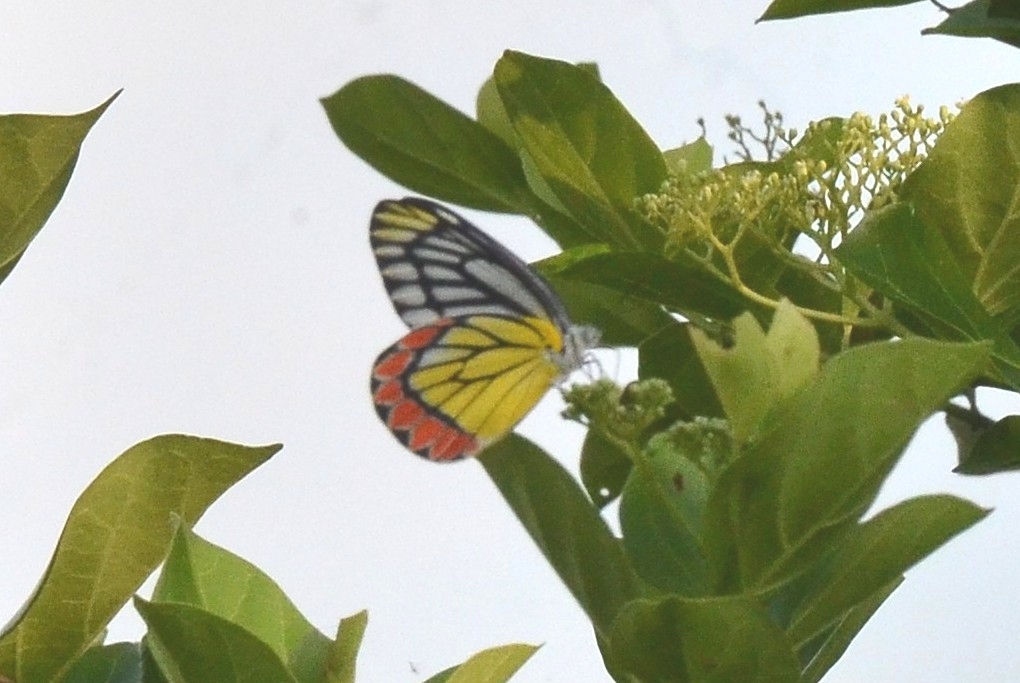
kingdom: Animalia
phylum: Arthropoda
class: Insecta
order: Lepidoptera
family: Pieridae
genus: Delias
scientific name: Delias eucharis
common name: Common jezebel
